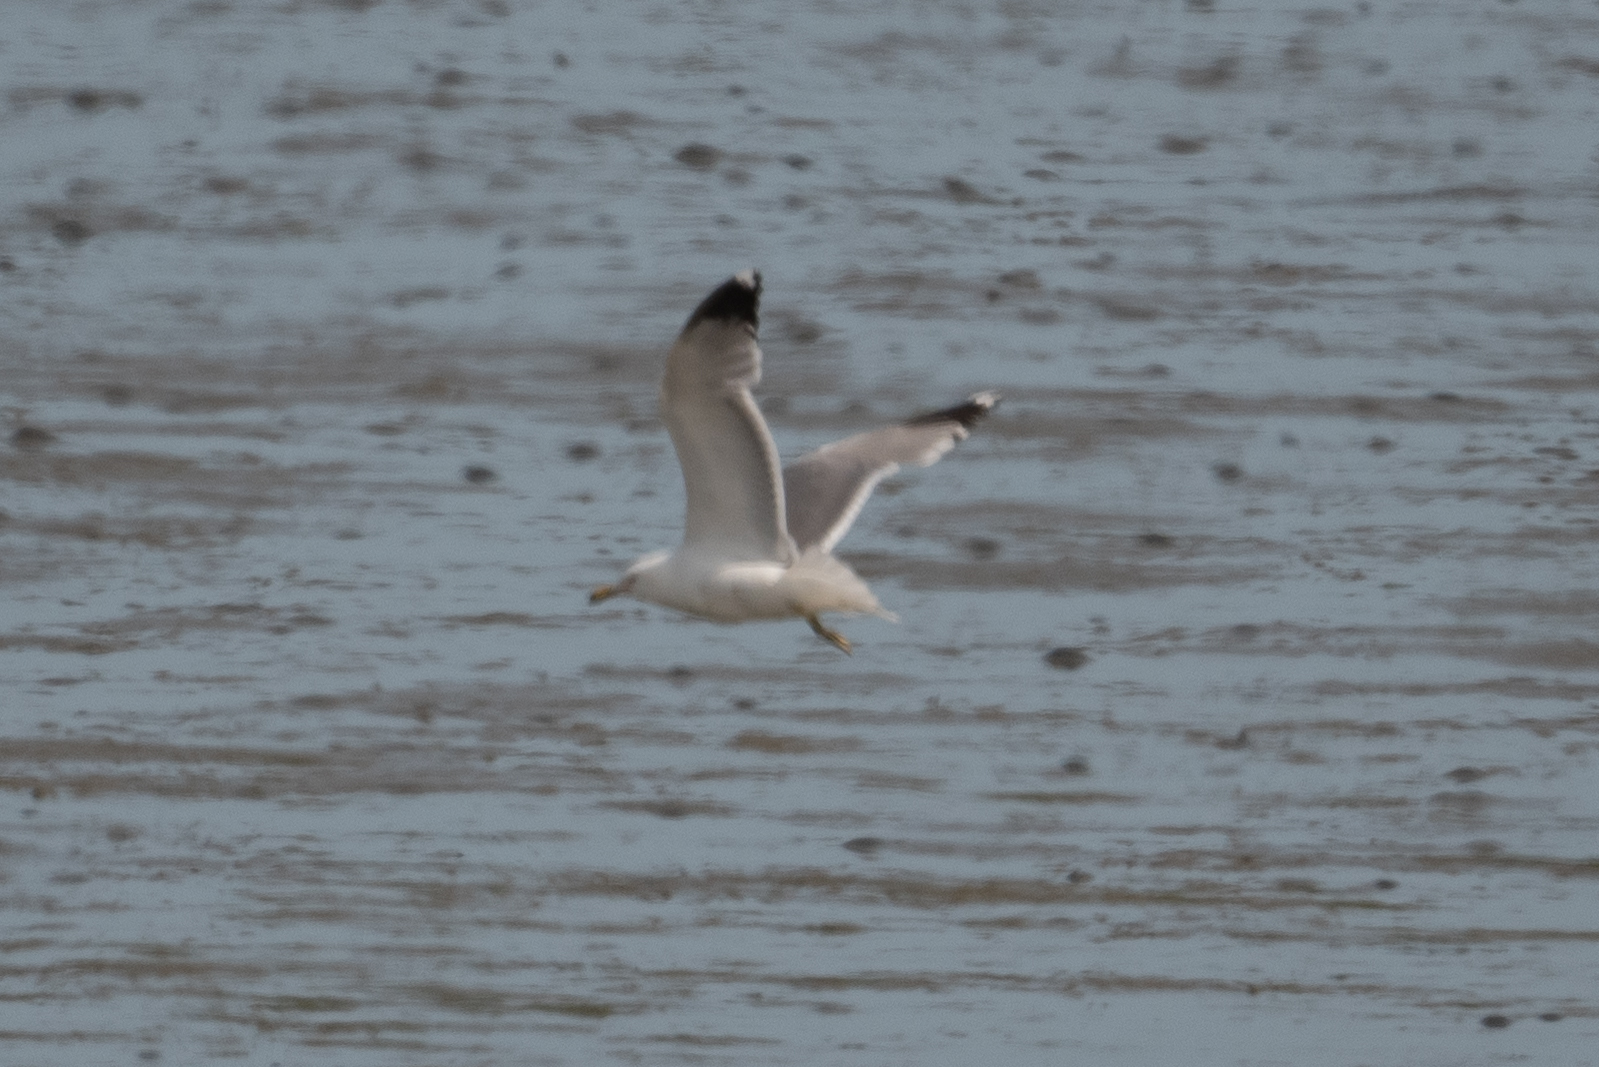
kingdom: Animalia
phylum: Chordata
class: Aves
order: Charadriiformes
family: Laridae
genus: Larus
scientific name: Larus californicus
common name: California gull
